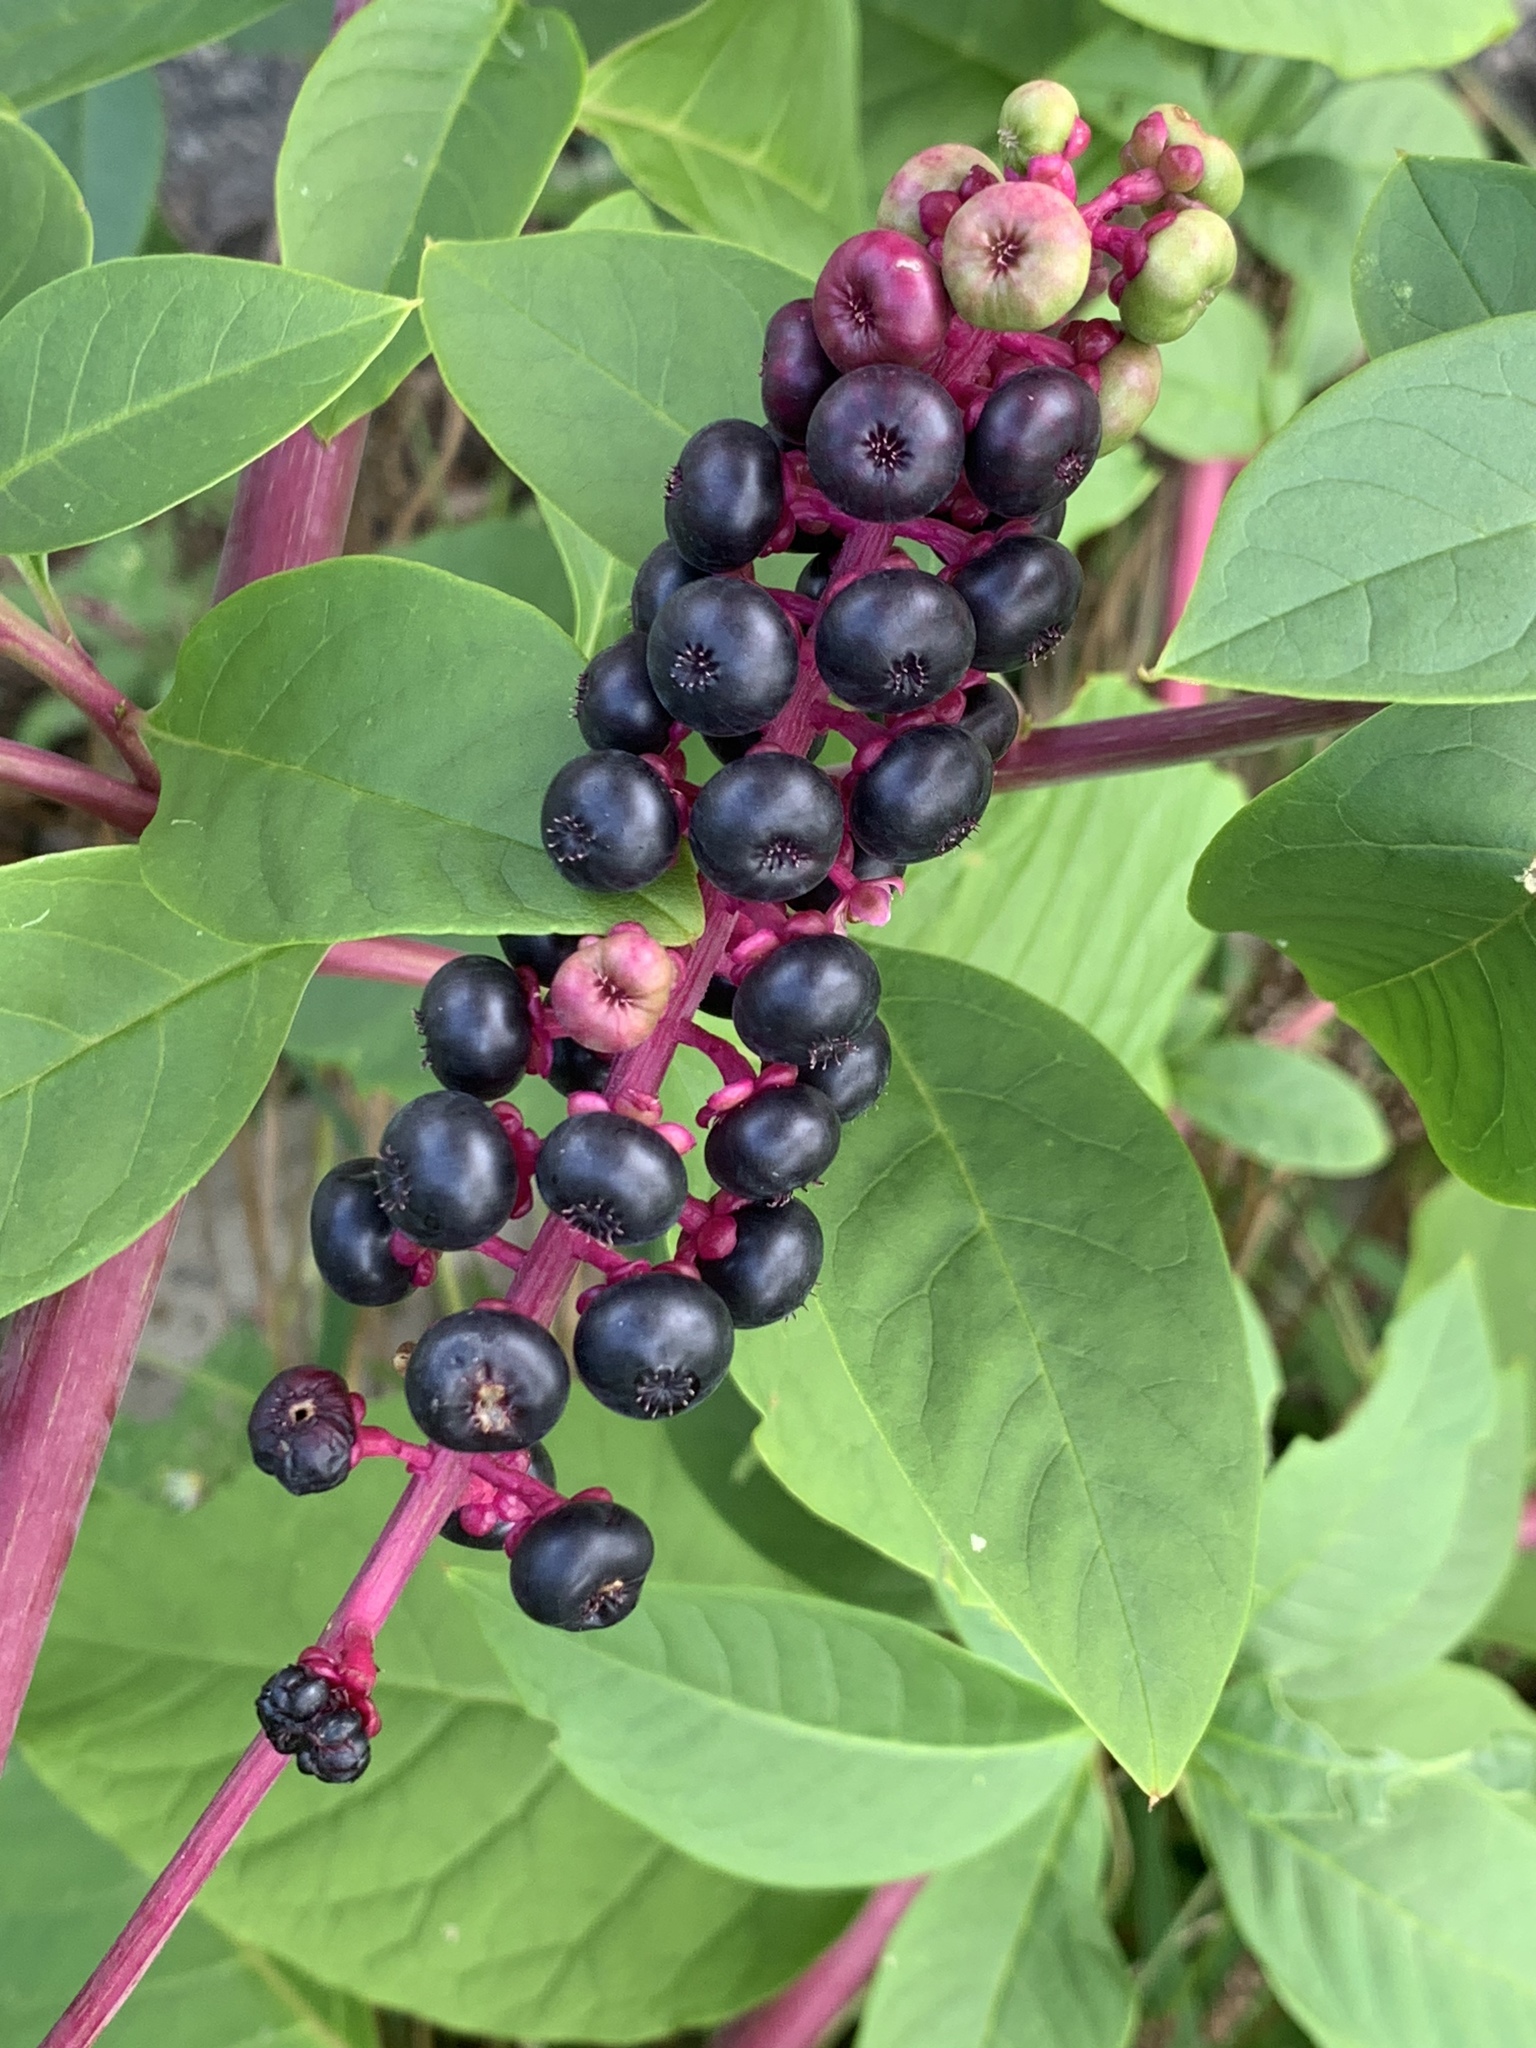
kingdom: Plantae
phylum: Tracheophyta
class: Magnoliopsida
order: Caryophyllales
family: Phytolaccaceae
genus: Phytolacca
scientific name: Phytolacca americana
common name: American pokeweed
